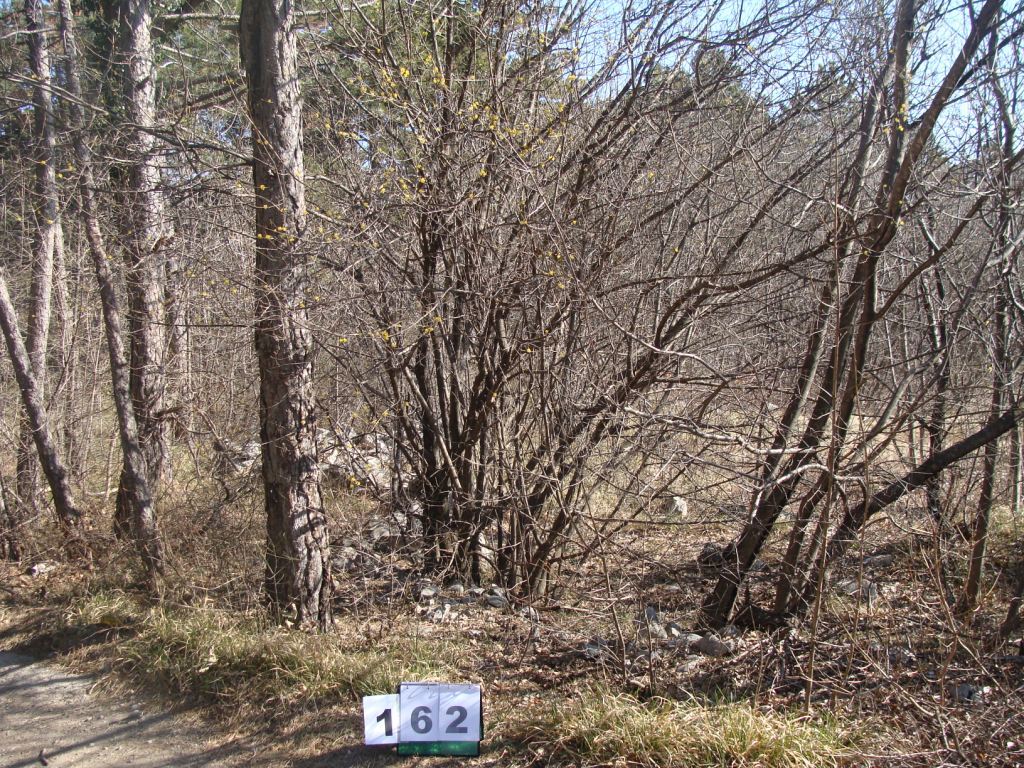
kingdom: Plantae
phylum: Tracheophyta
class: Magnoliopsida
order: Cornales
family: Cornaceae
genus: Cornus
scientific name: Cornus mas
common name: Cornelian-cherry
